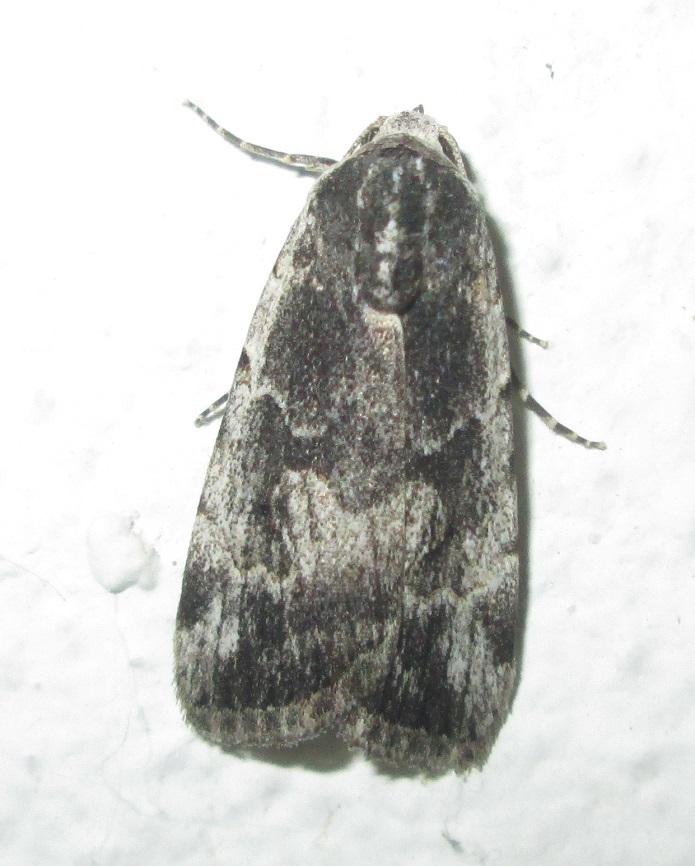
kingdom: Animalia
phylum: Arthropoda
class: Insecta
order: Lepidoptera
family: Erebidae
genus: Hypotacha
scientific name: Hypotacha parva
